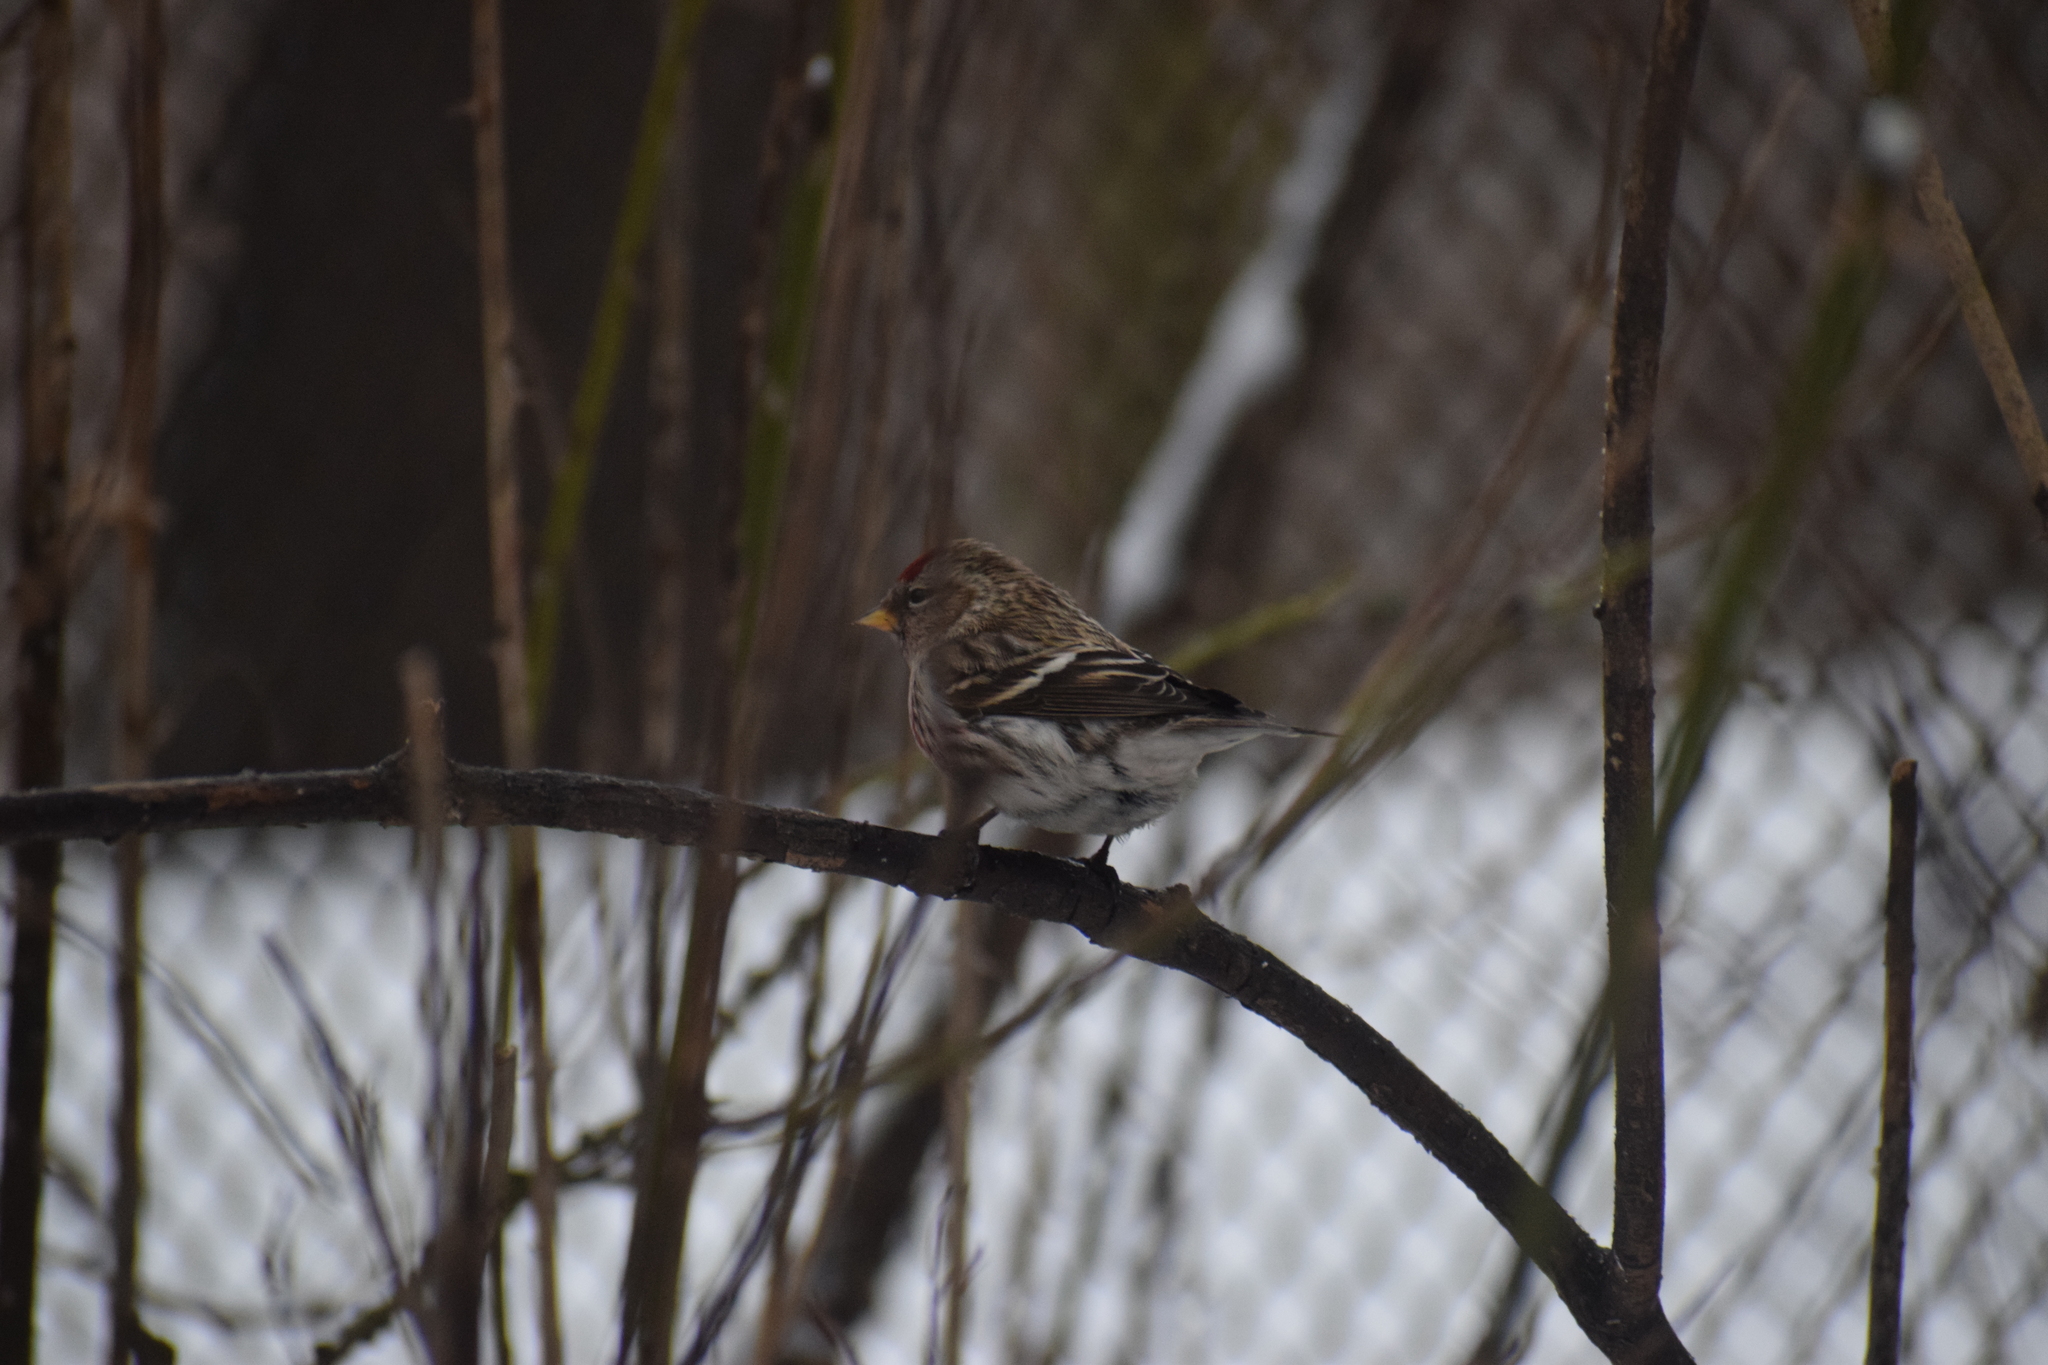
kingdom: Animalia
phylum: Chordata
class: Aves
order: Passeriformes
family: Fringillidae
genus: Acanthis
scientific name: Acanthis flammea
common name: Common redpoll
